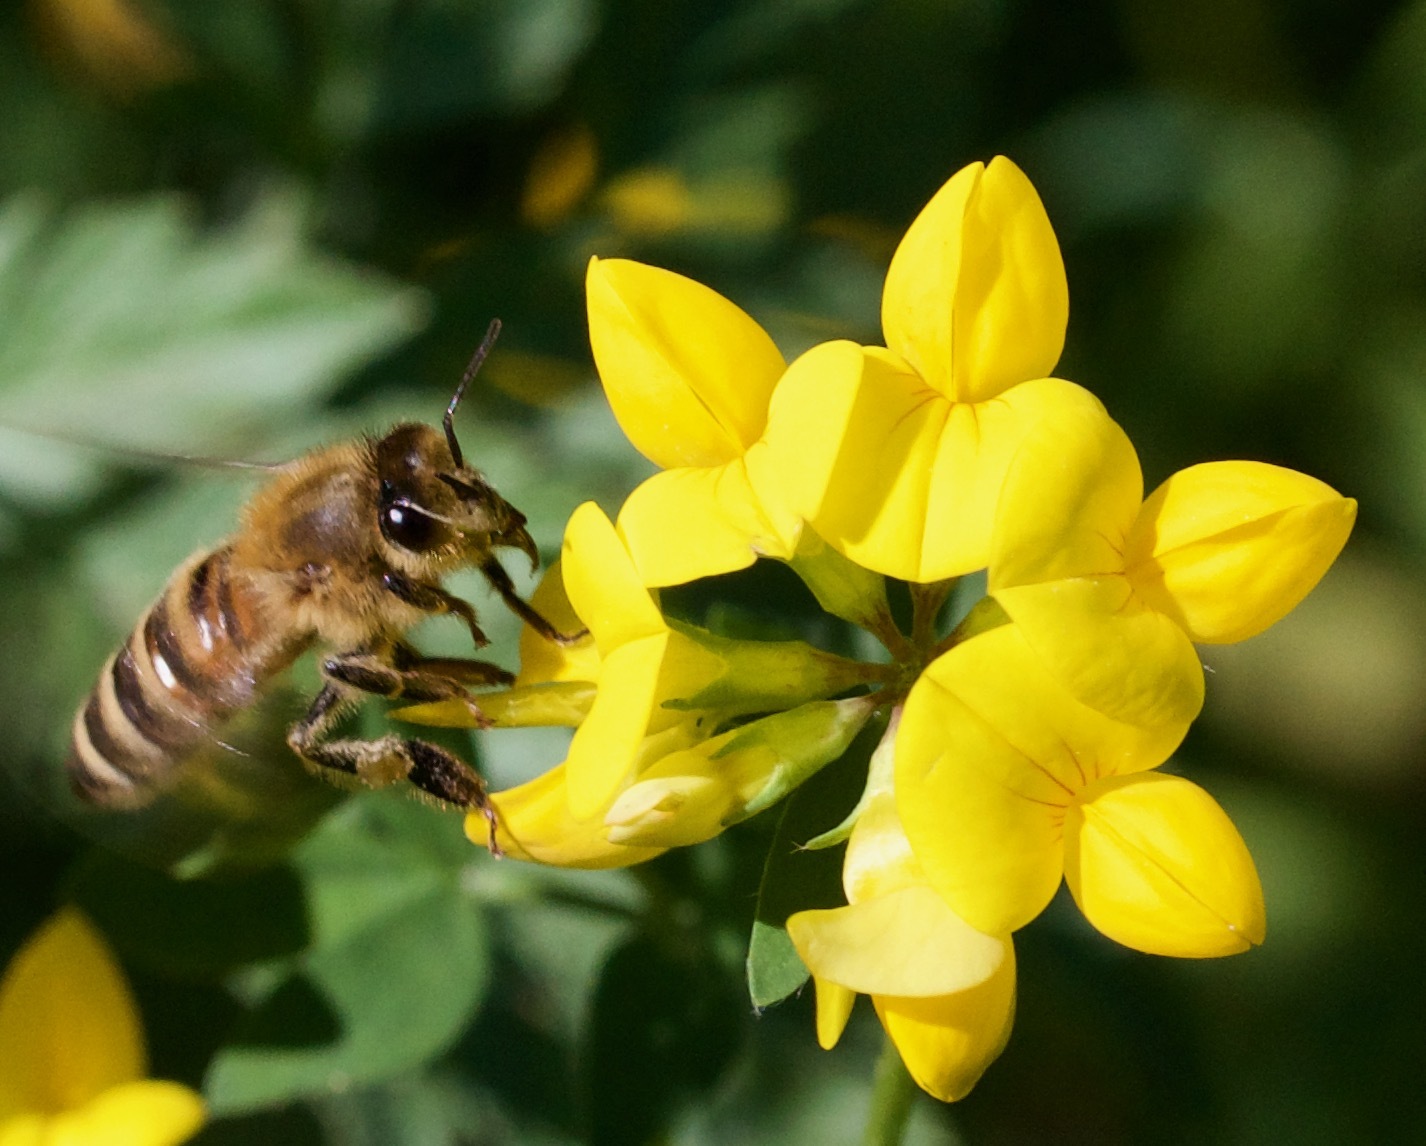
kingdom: Plantae
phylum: Tracheophyta
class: Magnoliopsida
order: Fabales
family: Fabaceae
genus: Lotus
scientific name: Lotus corniculatus
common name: Common bird's-foot-trefoil
